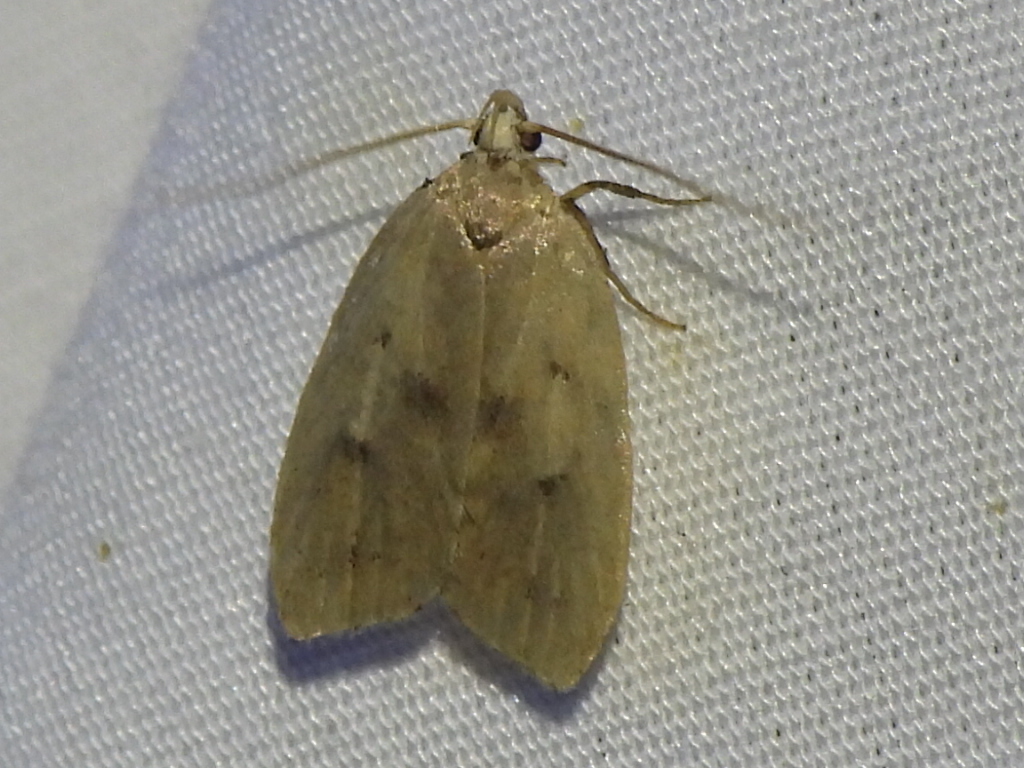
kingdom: Animalia
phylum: Arthropoda
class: Insecta
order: Lepidoptera
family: Peleopodidae
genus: Machimia
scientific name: Machimia tentoriferella
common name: Gold-striped leaftier moth
